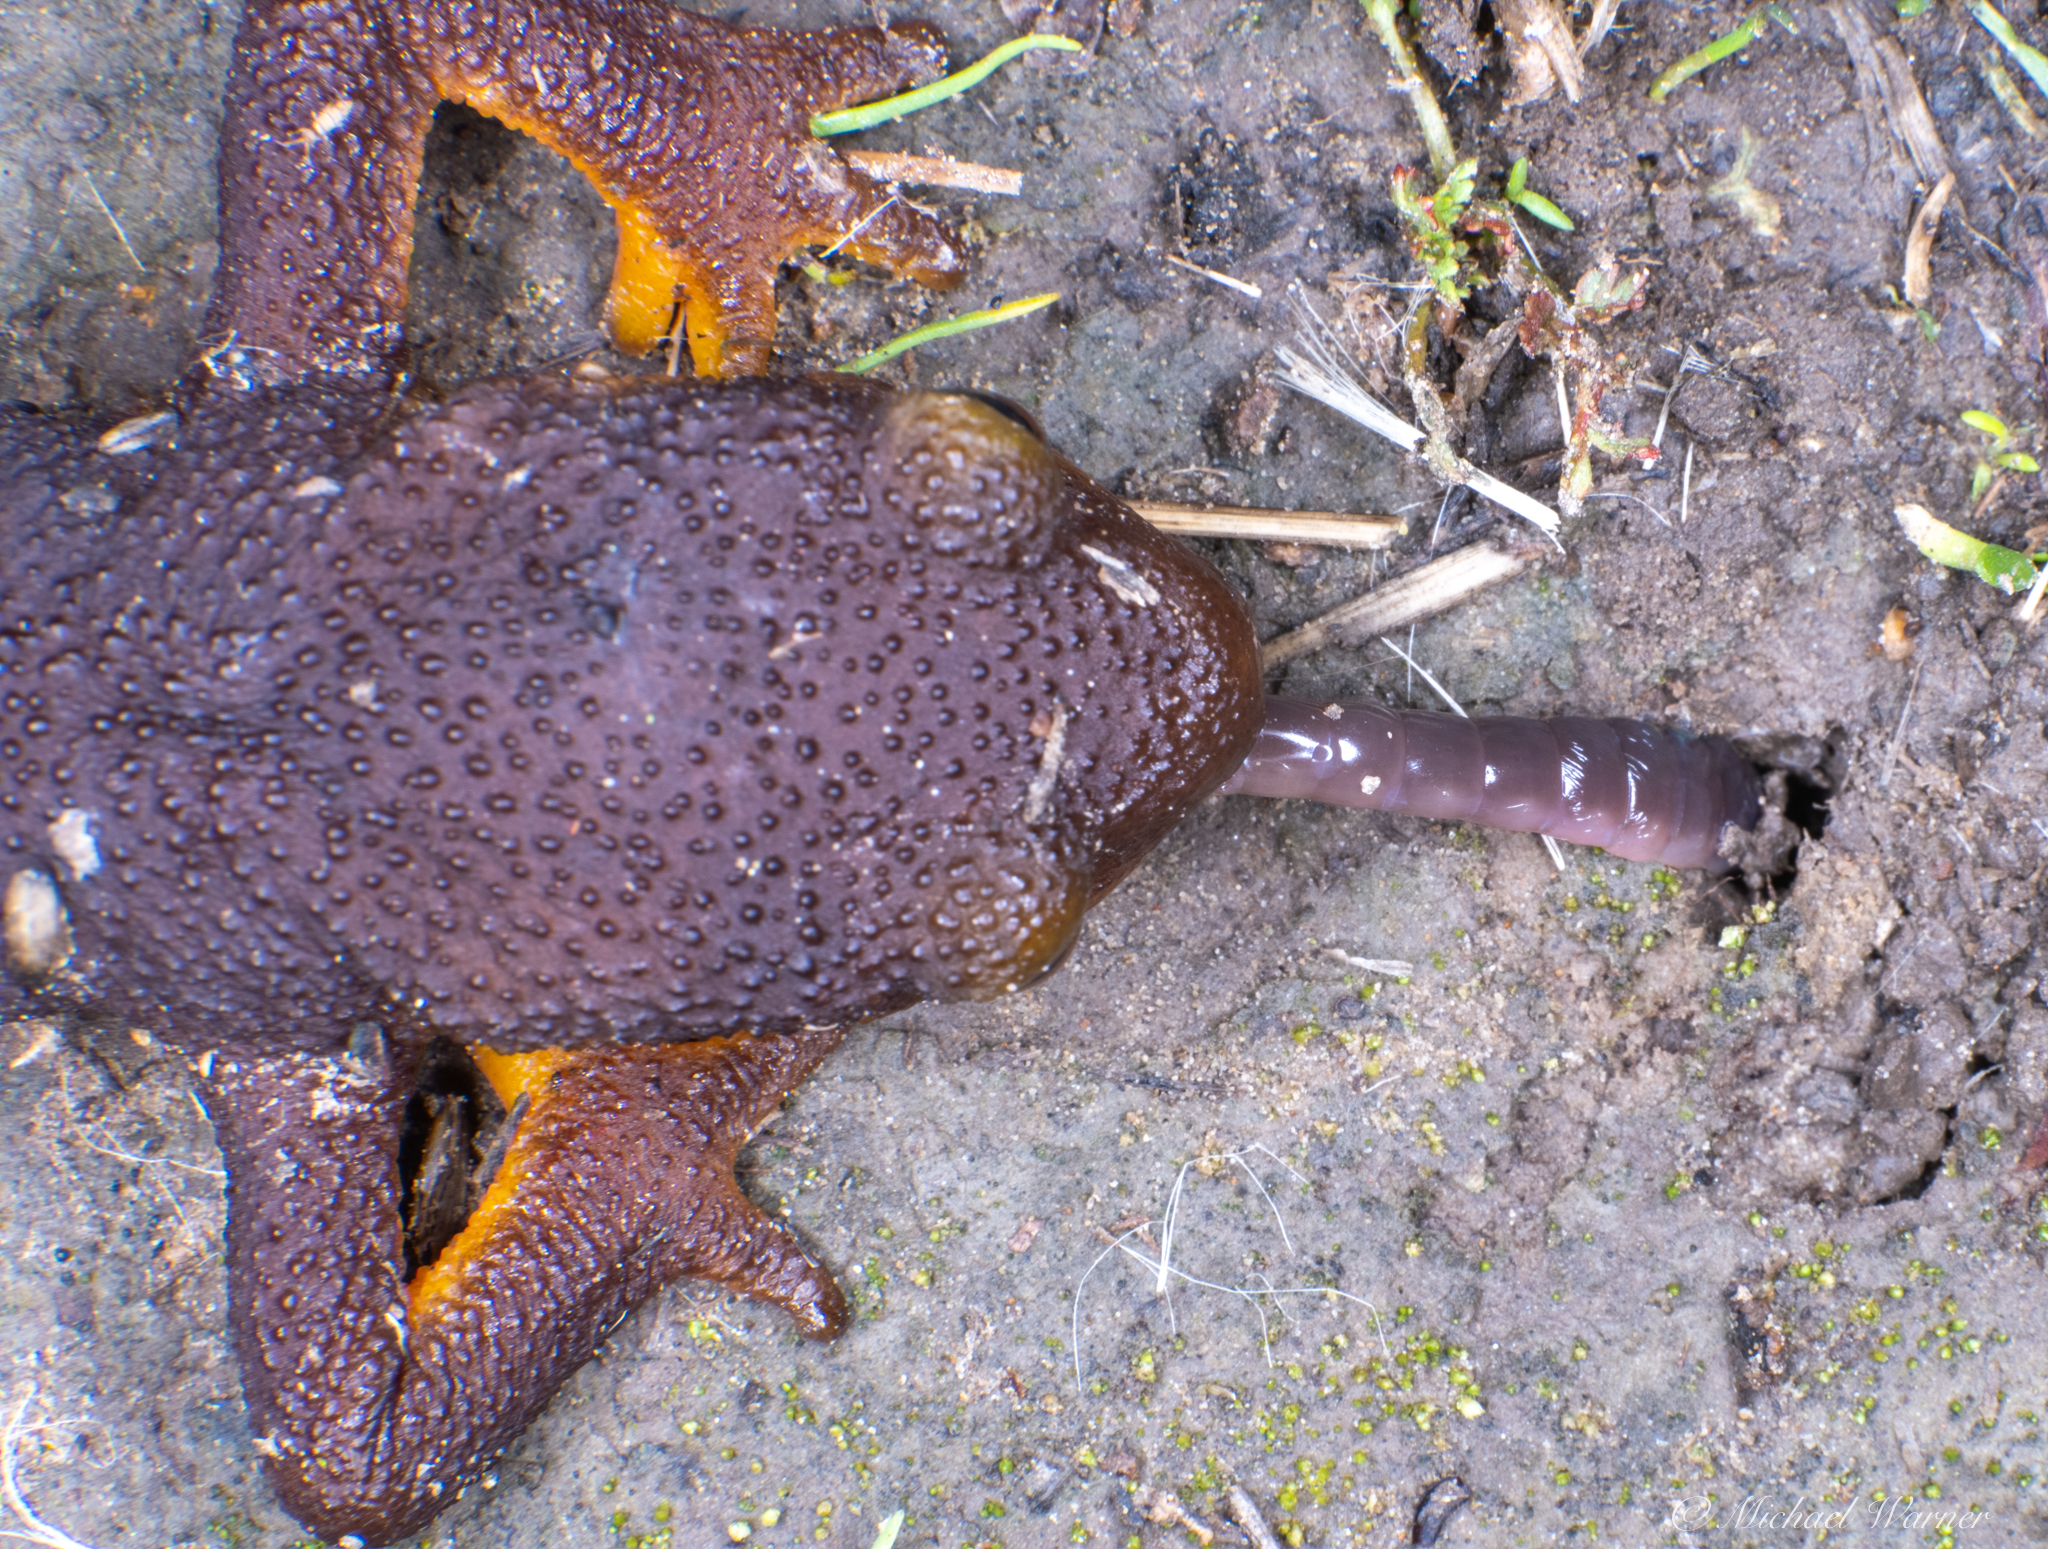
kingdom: Animalia
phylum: Chordata
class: Amphibia
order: Caudata
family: Salamandridae
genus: Taricha
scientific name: Taricha torosa
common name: California newt
